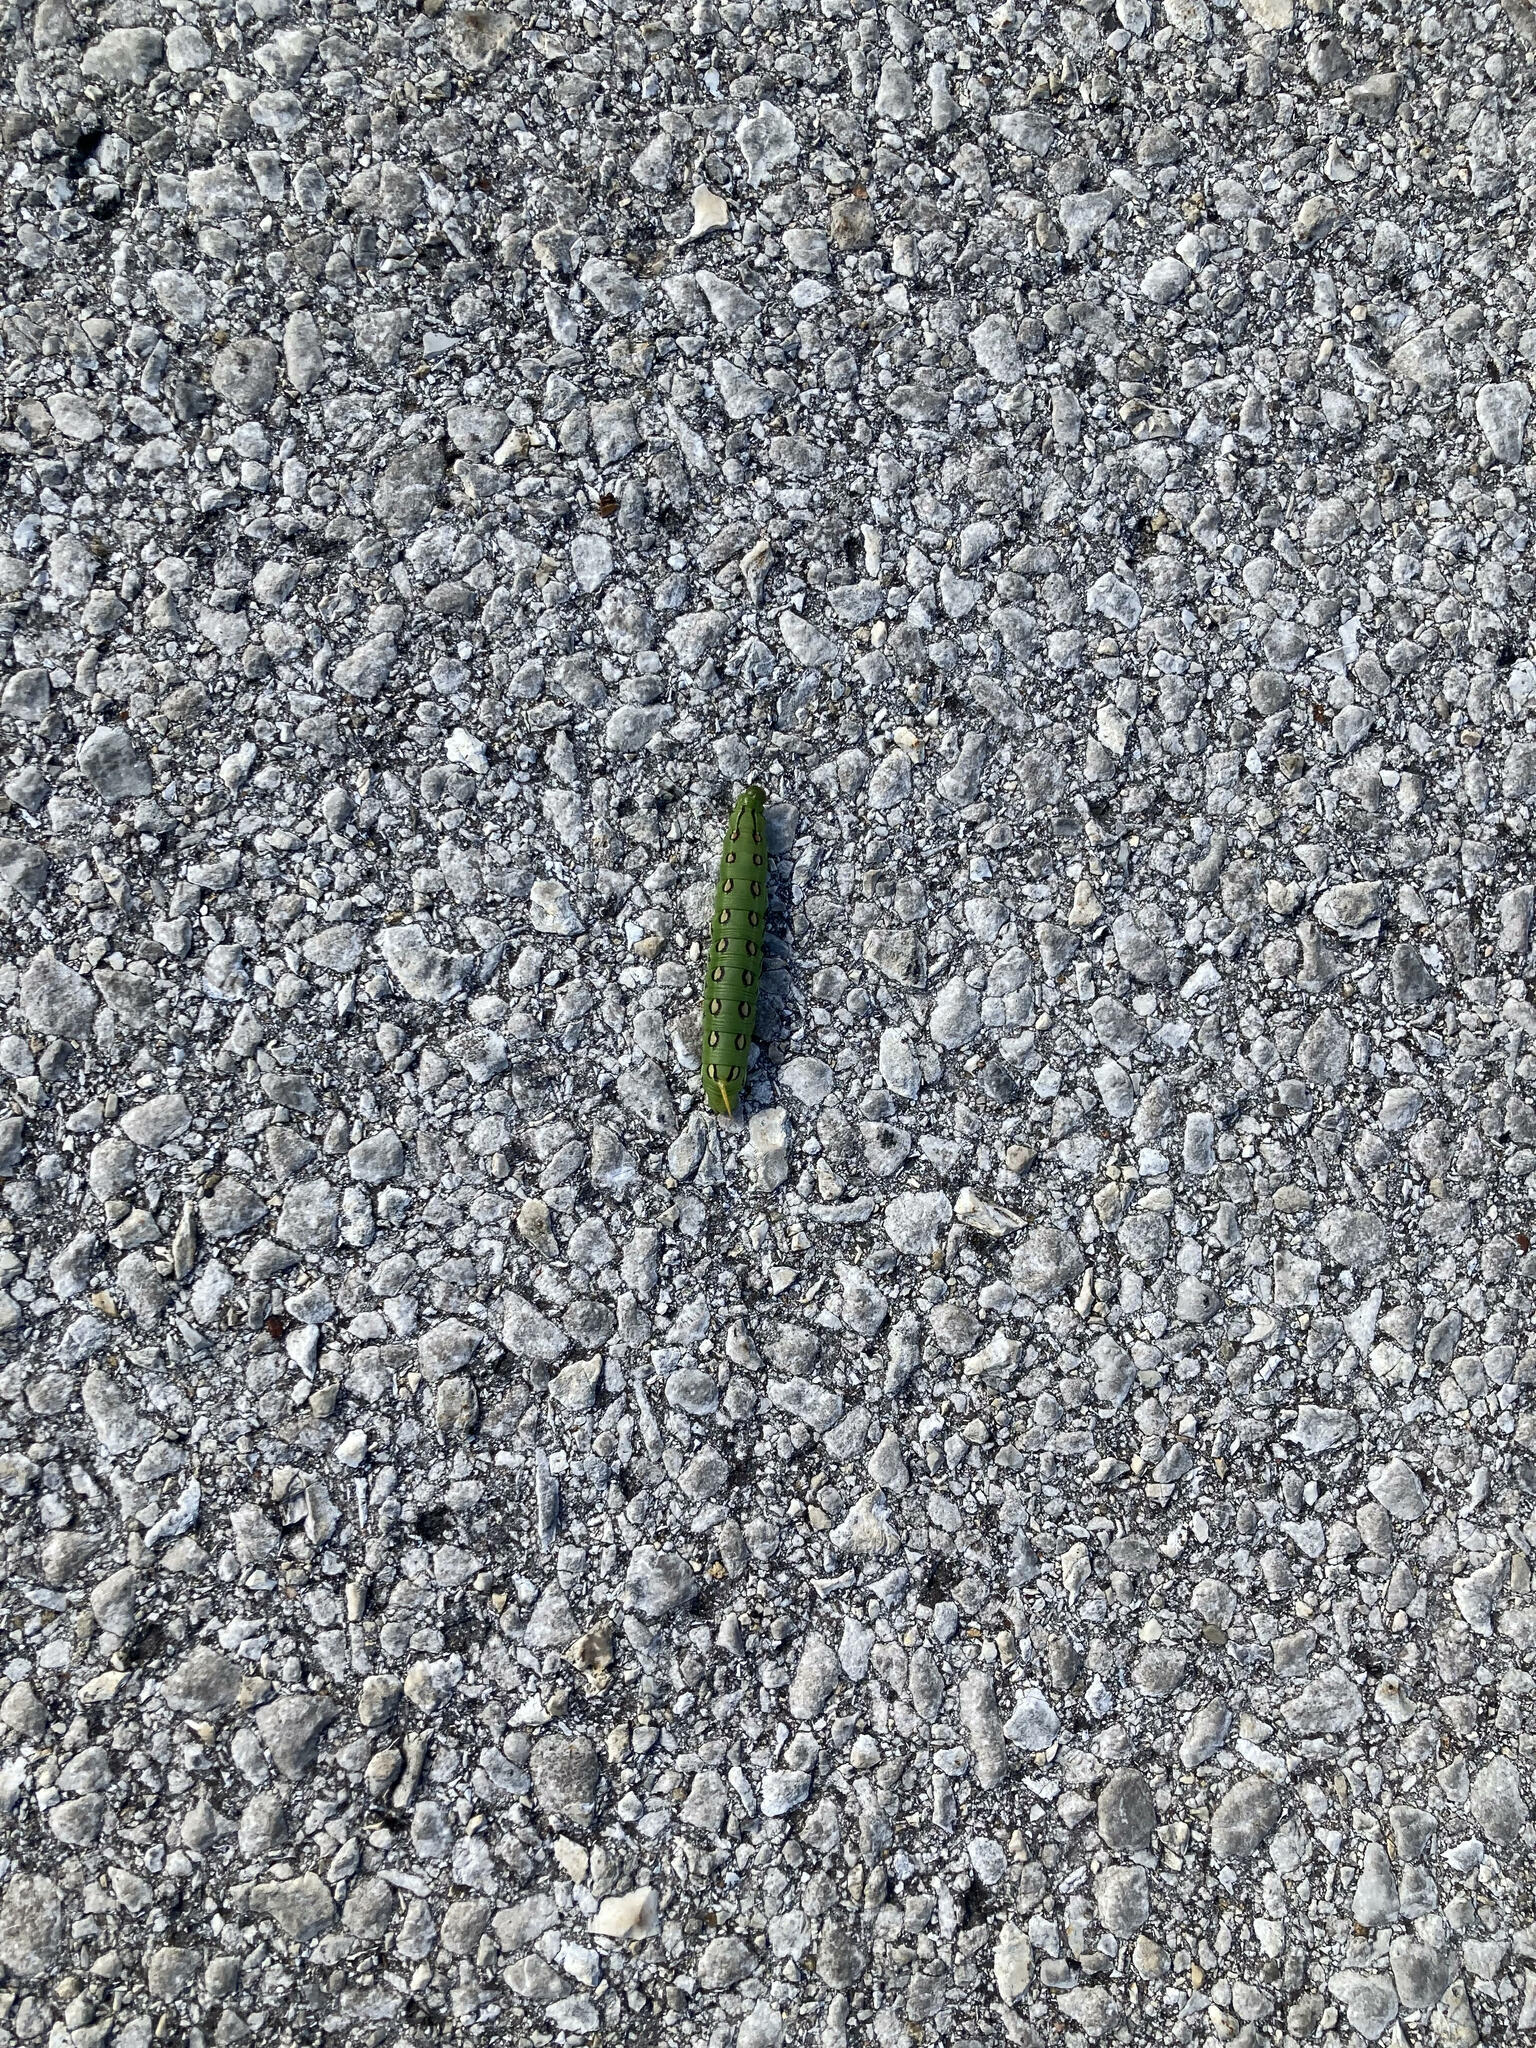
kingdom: Animalia
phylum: Arthropoda
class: Insecta
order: Lepidoptera
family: Sphingidae
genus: Hyles
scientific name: Hyles lineata
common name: White-lined sphinx
